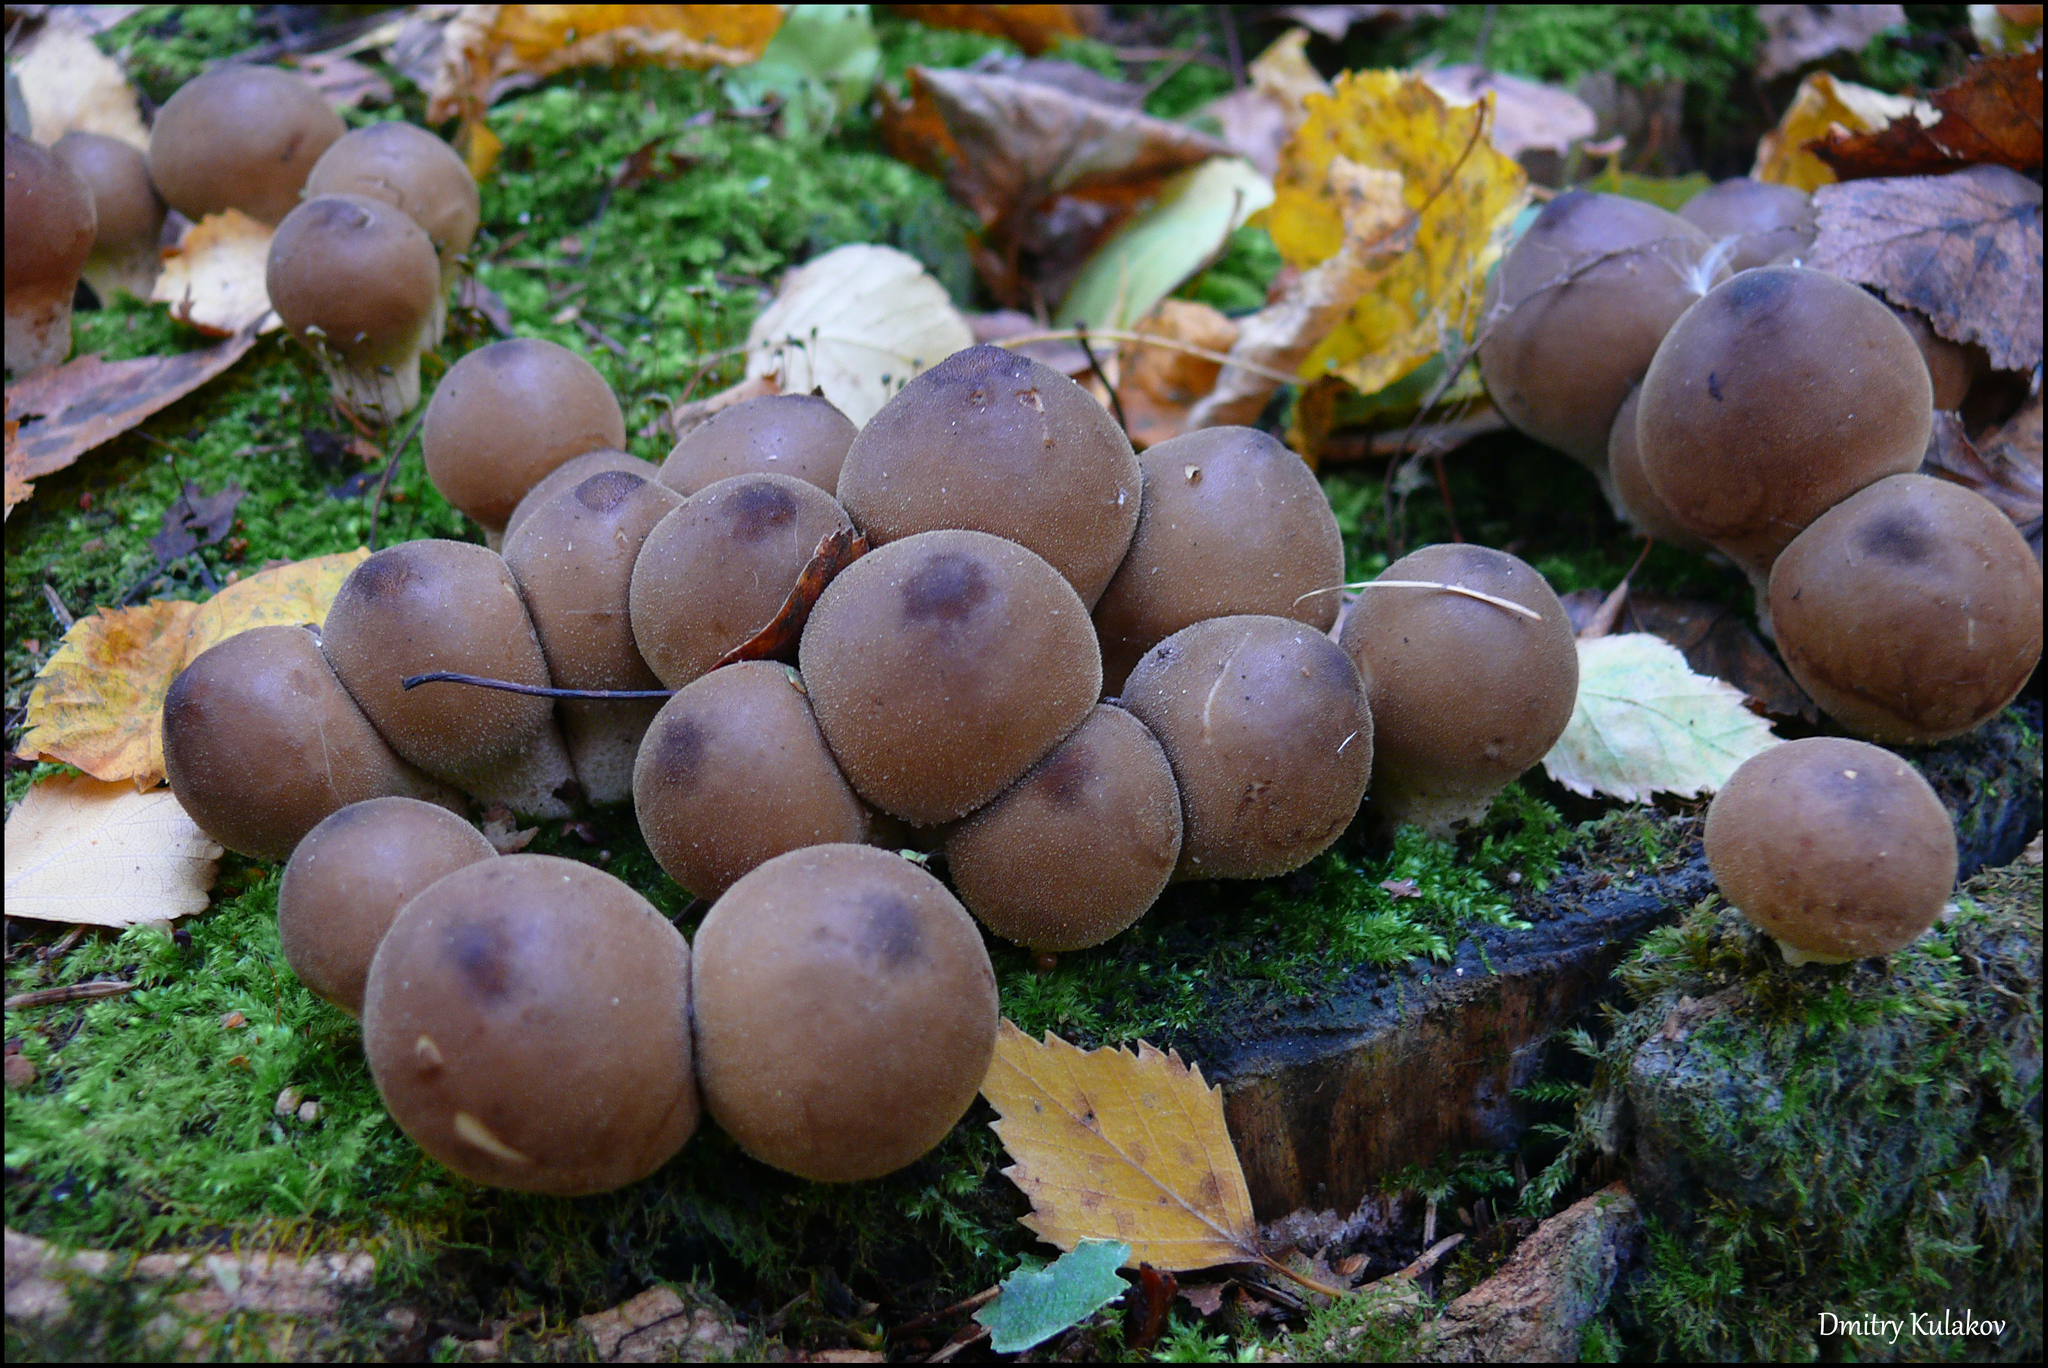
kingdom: Fungi
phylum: Basidiomycota
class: Agaricomycetes
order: Agaricales
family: Lycoperdaceae
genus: Apioperdon
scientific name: Apioperdon pyriforme
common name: Pear-shaped puffball
